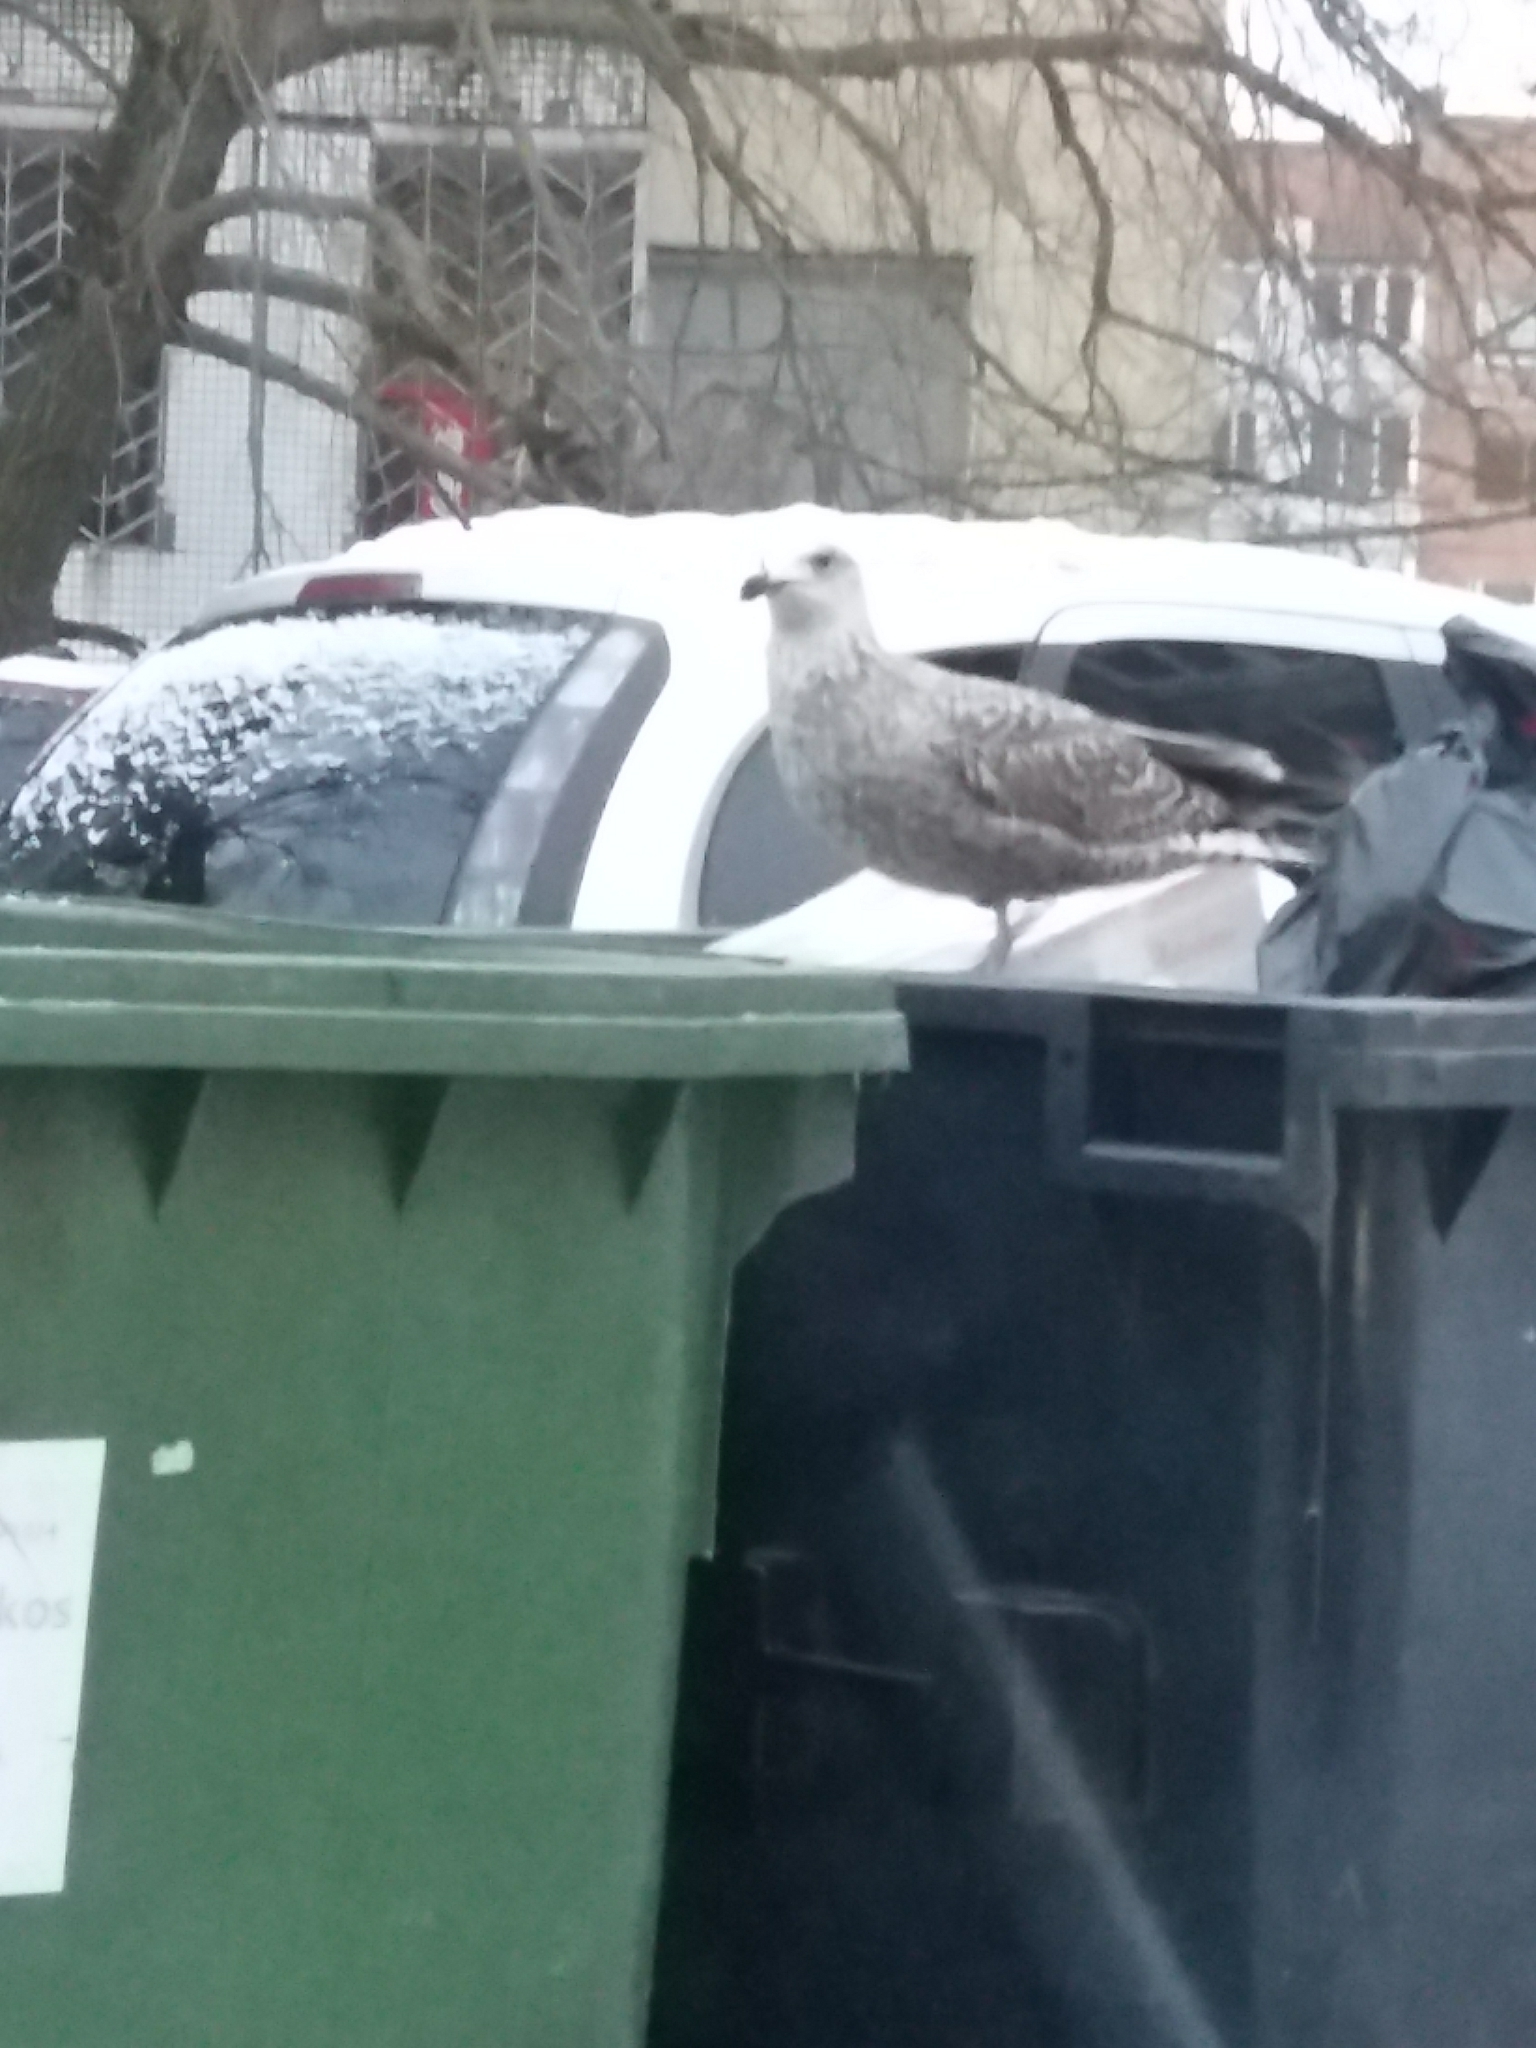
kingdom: Animalia
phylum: Chordata
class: Aves
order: Charadriiformes
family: Laridae
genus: Larus
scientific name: Larus
